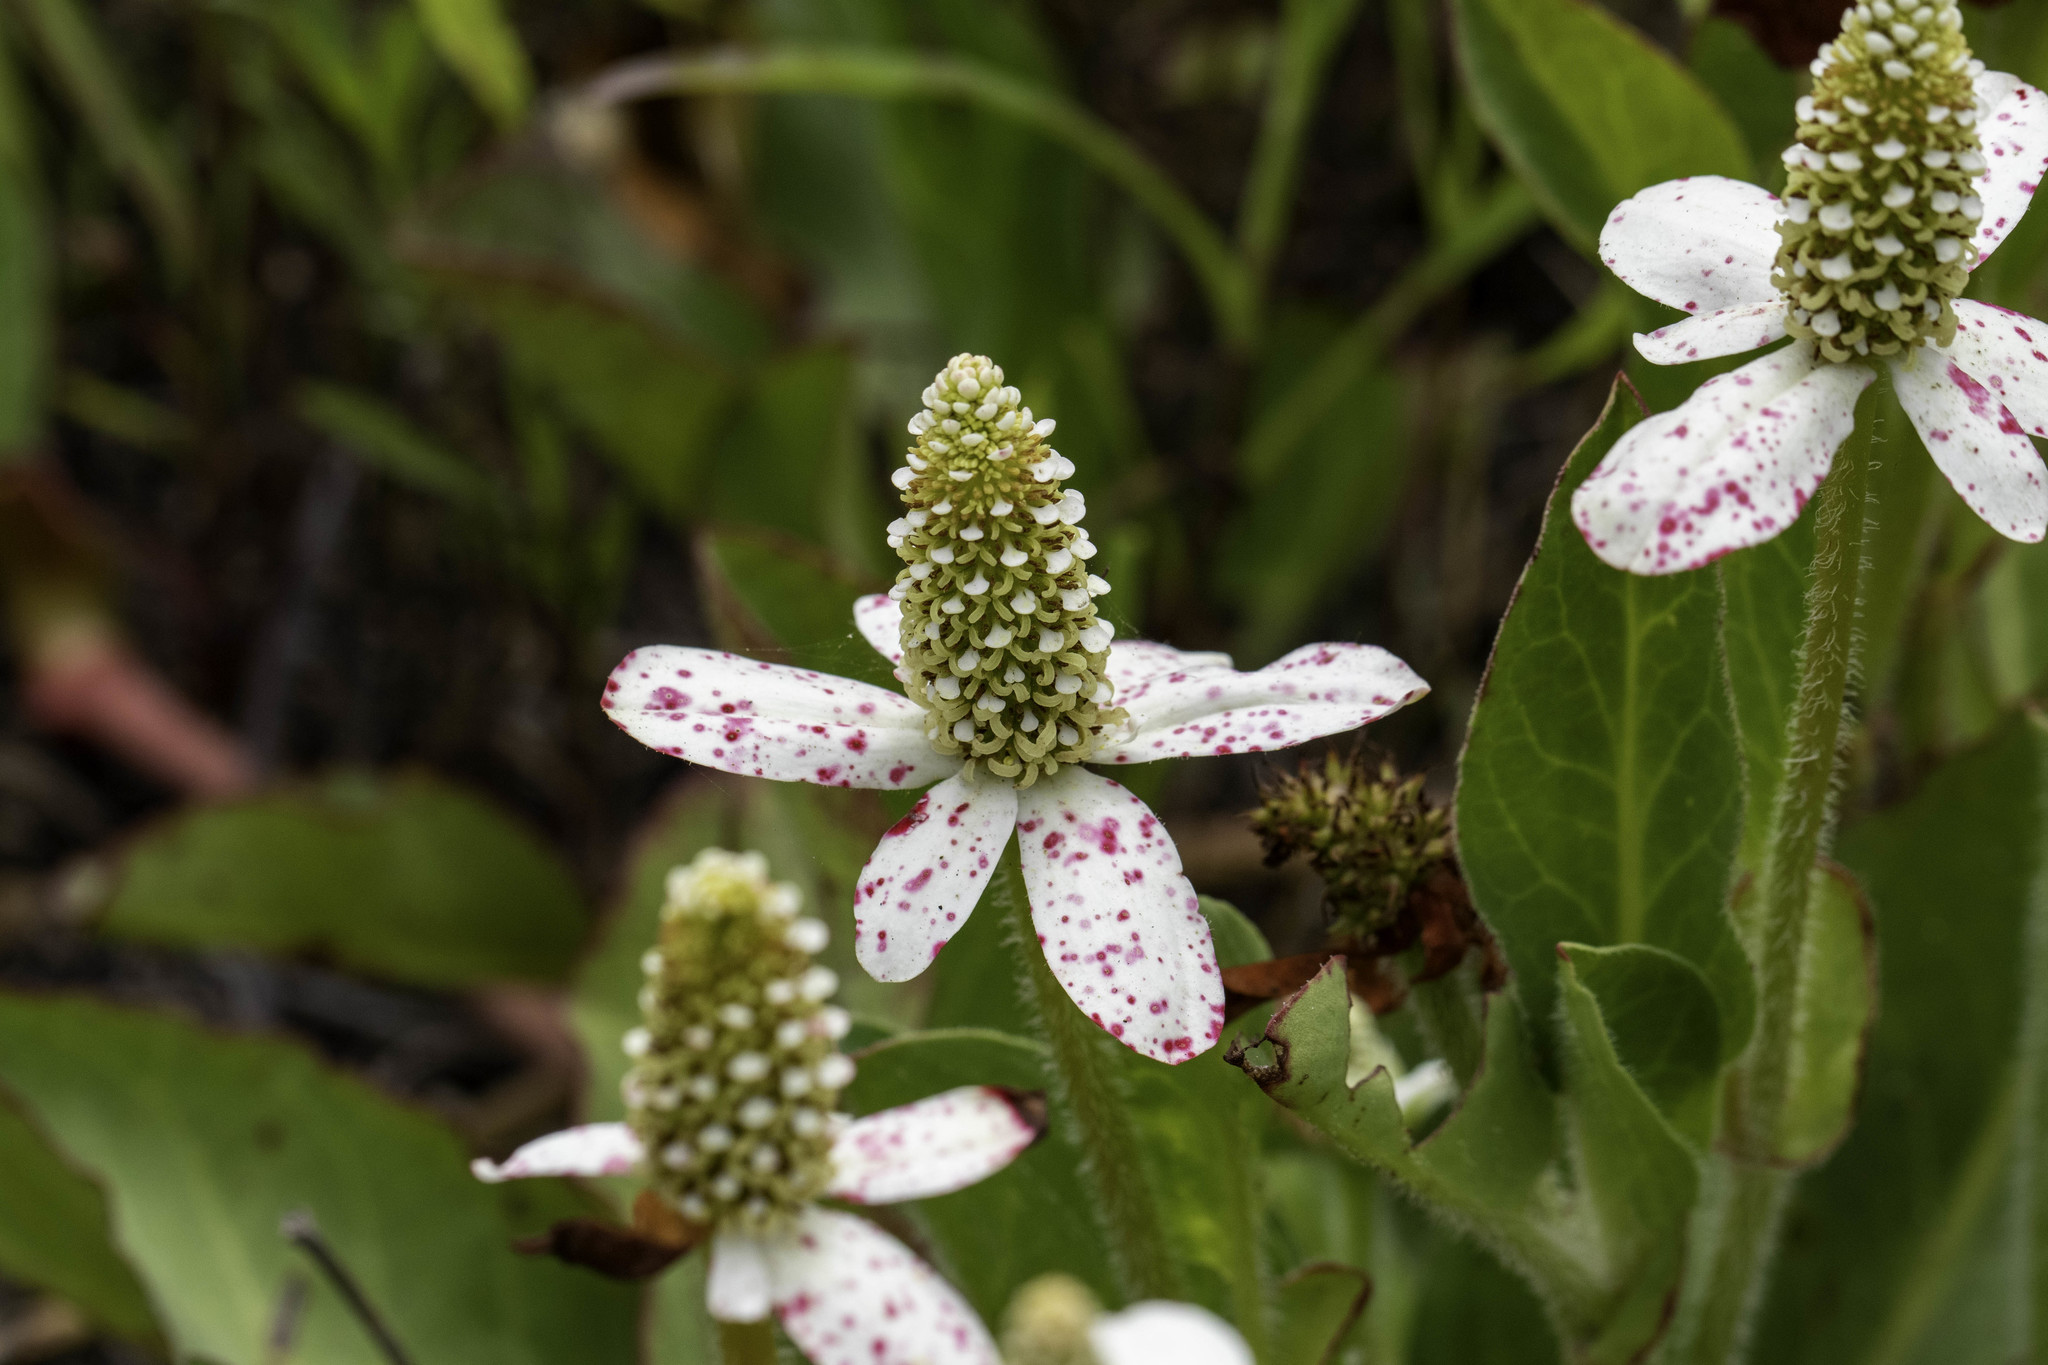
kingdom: Plantae
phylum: Tracheophyta
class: Magnoliopsida
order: Piperales
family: Saururaceae
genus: Anemopsis
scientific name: Anemopsis californica
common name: Apache-beads
